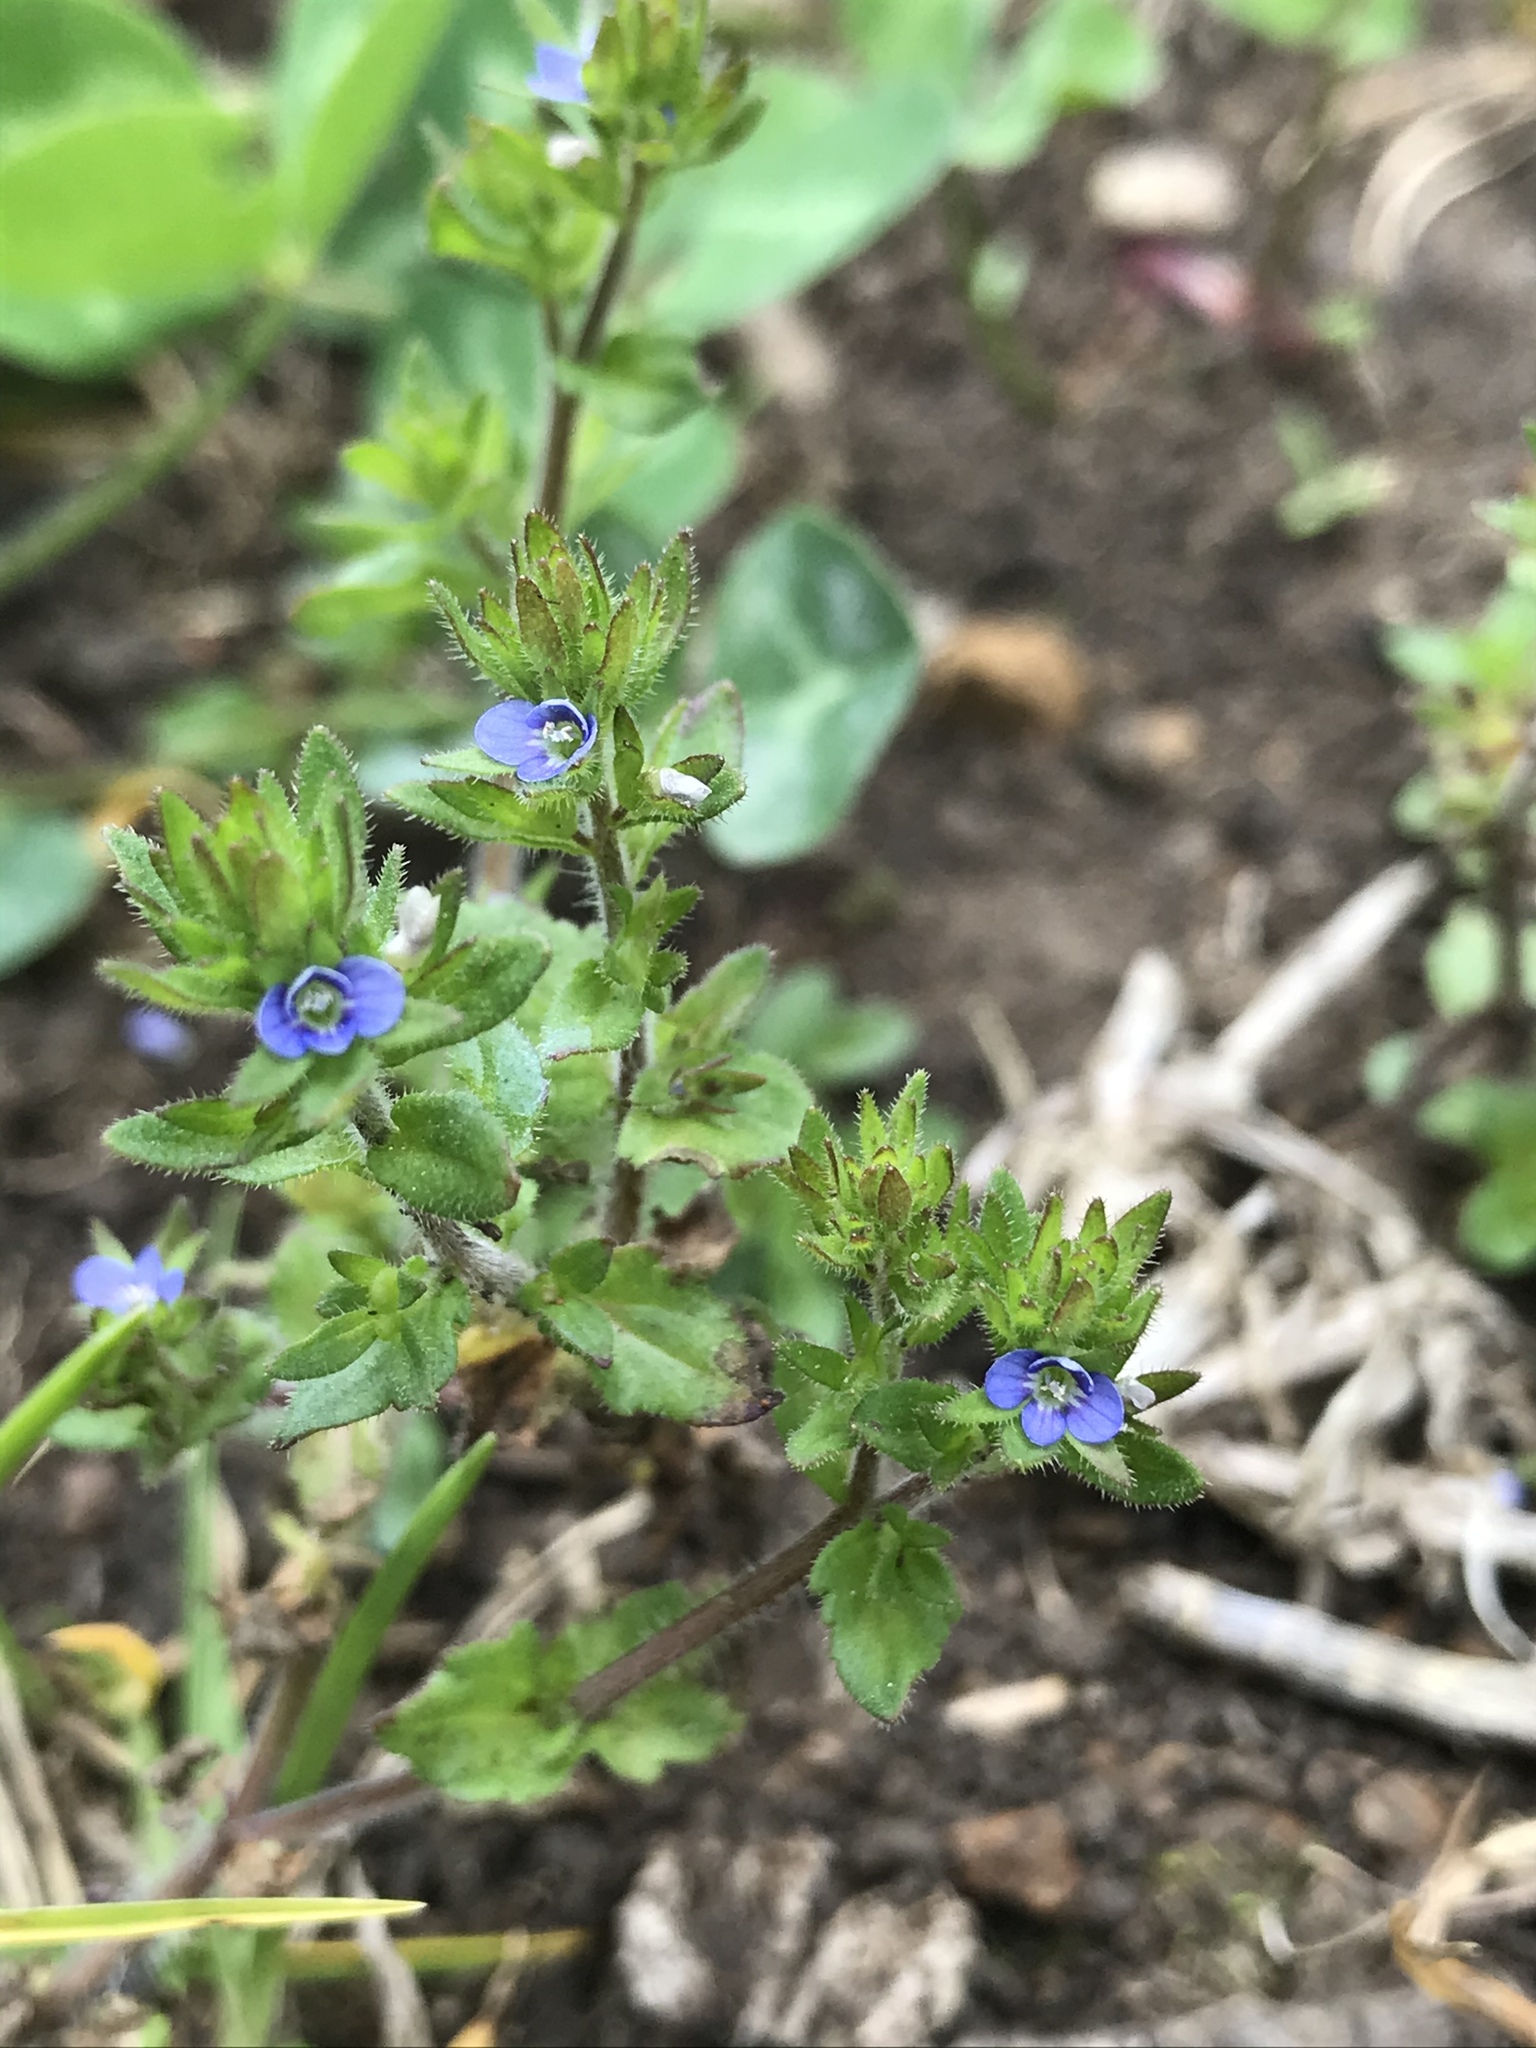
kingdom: Plantae
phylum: Tracheophyta
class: Magnoliopsida
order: Lamiales
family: Plantaginaceae
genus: Veronica
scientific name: Veronica arvensis
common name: Corn speedwell
